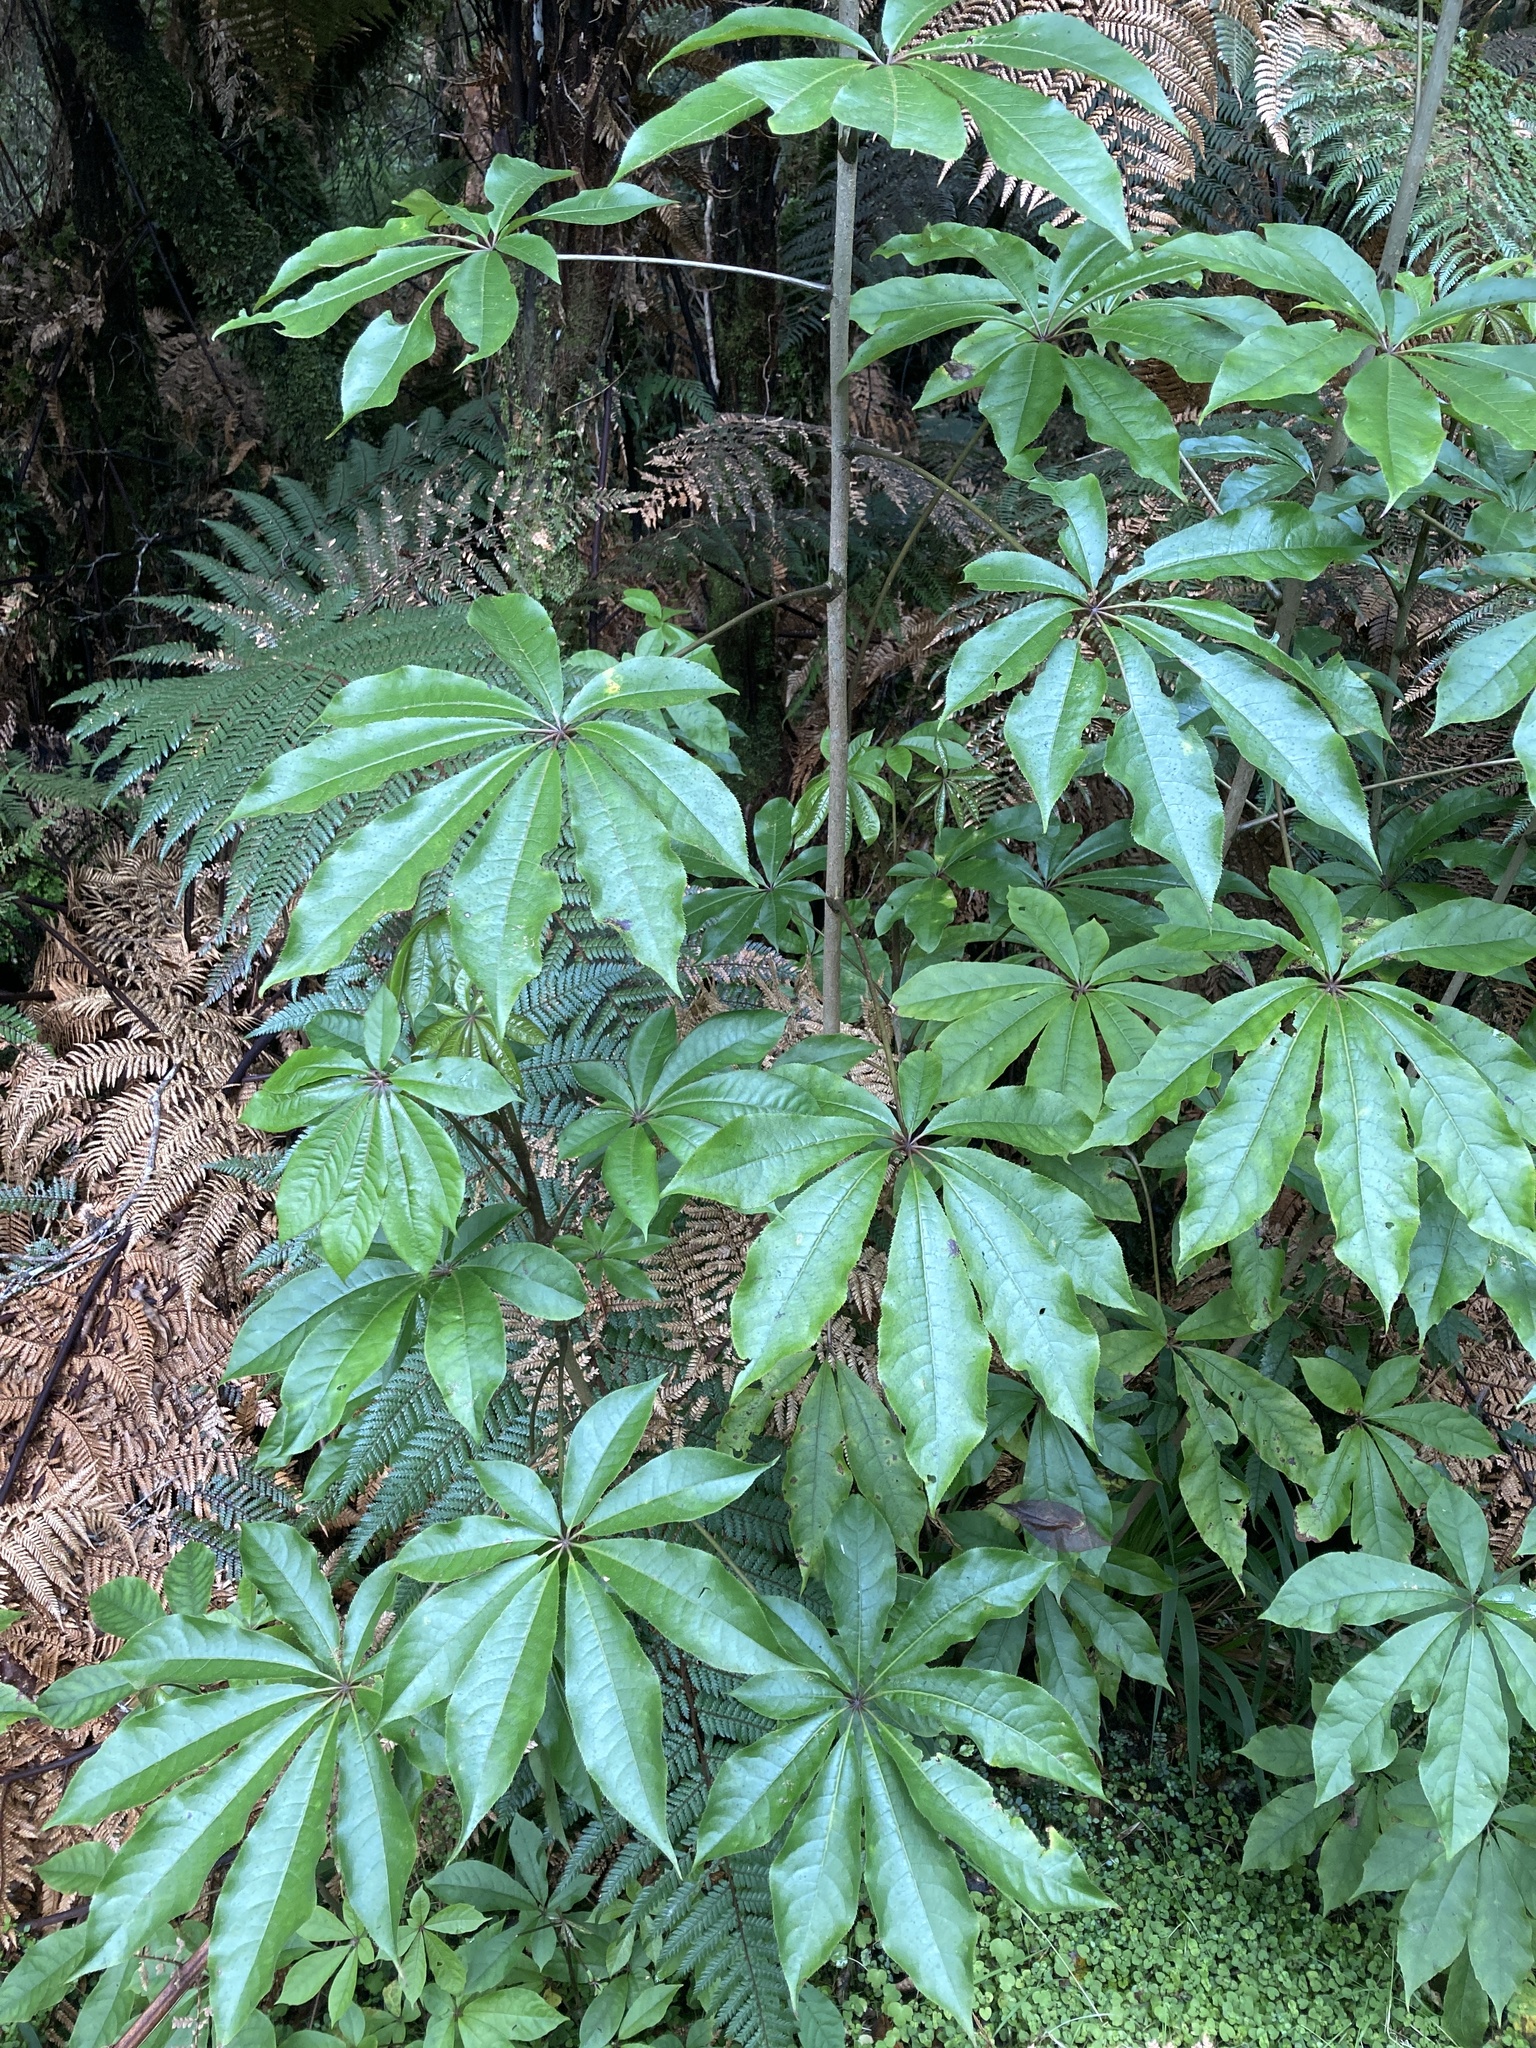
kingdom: Plantae
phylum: Tracheophyta
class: Magnoliopsida
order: Apiales
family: Araliaceae
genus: Schefflera
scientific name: Schefflera digitata
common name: Pate
